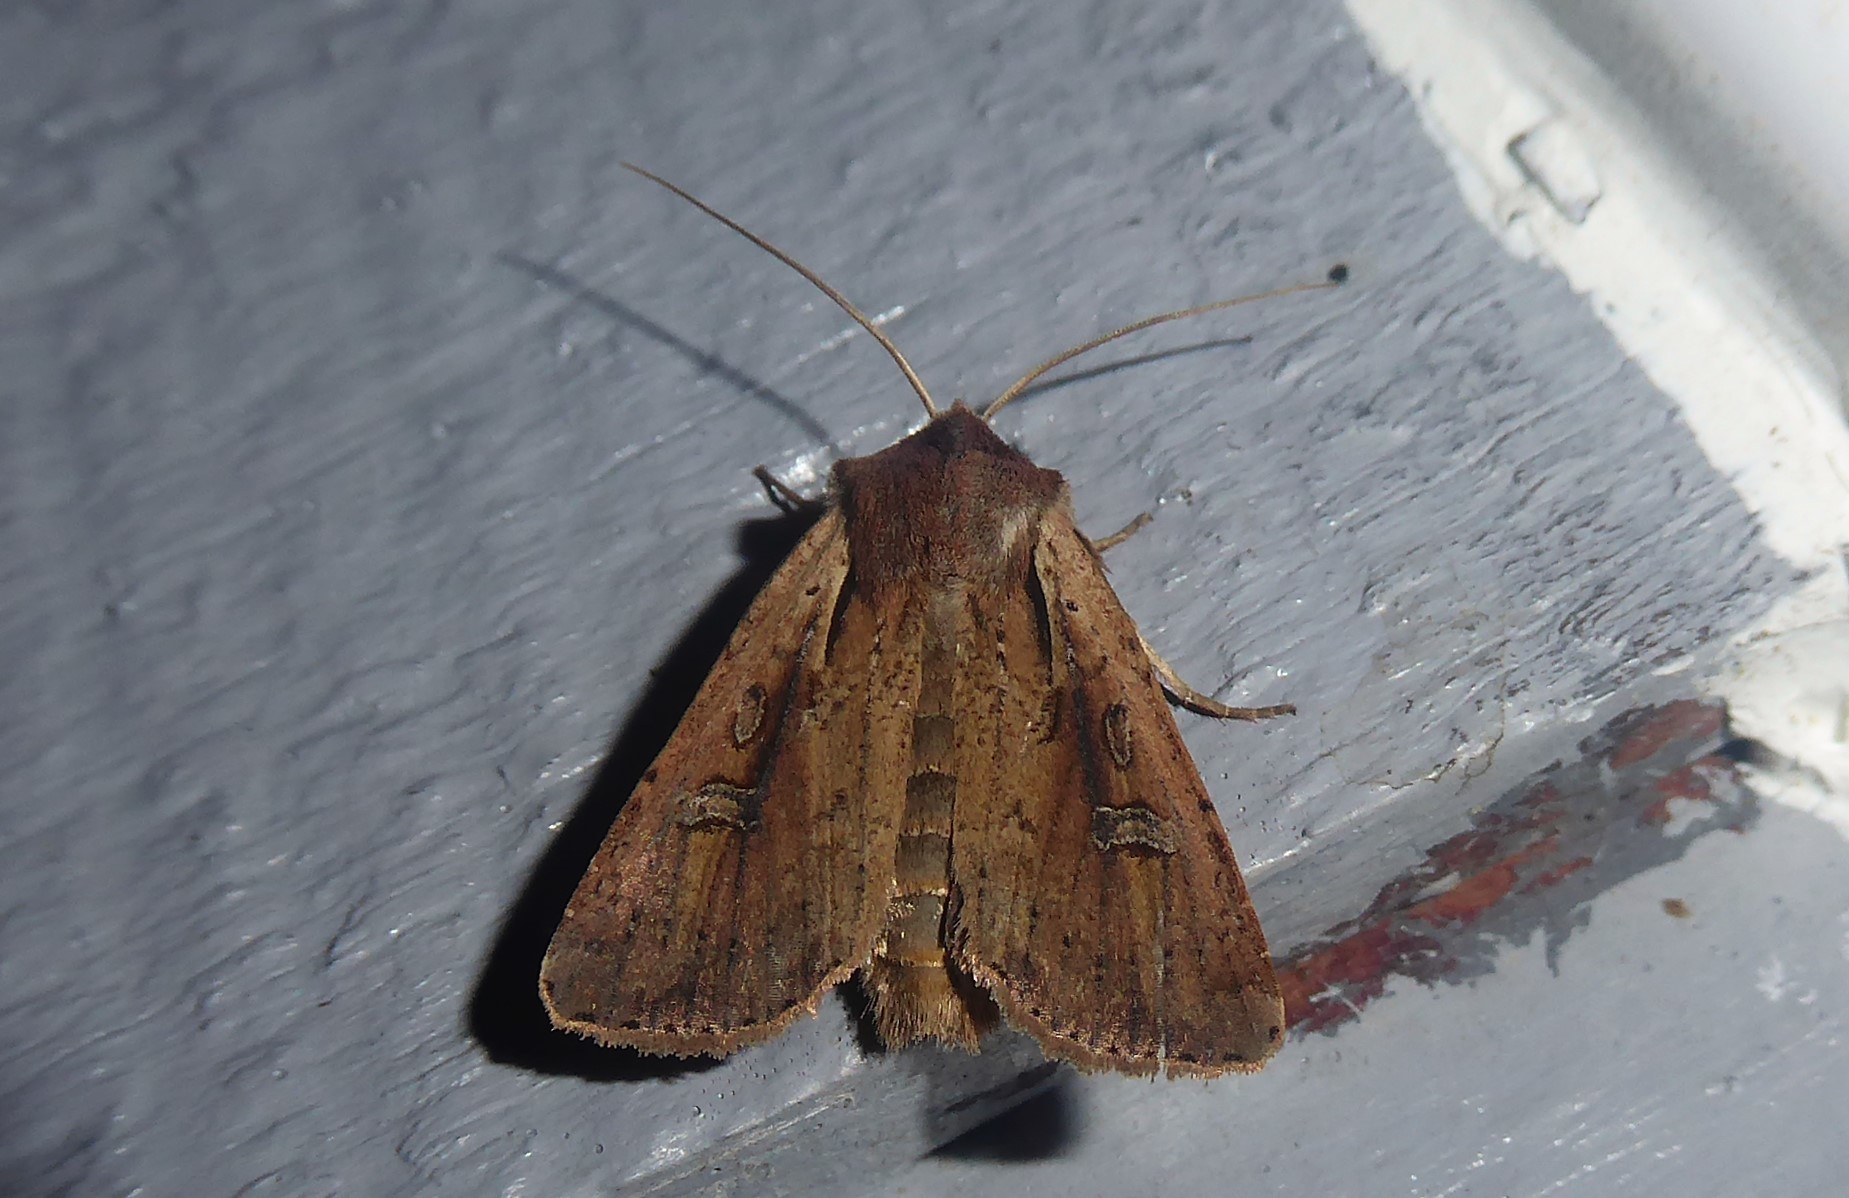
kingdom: Animalia
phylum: Arthropoda
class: Insecta
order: Lepidoptera
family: Noctuidae
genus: Ichneutica
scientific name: Ichneutica atristriga
